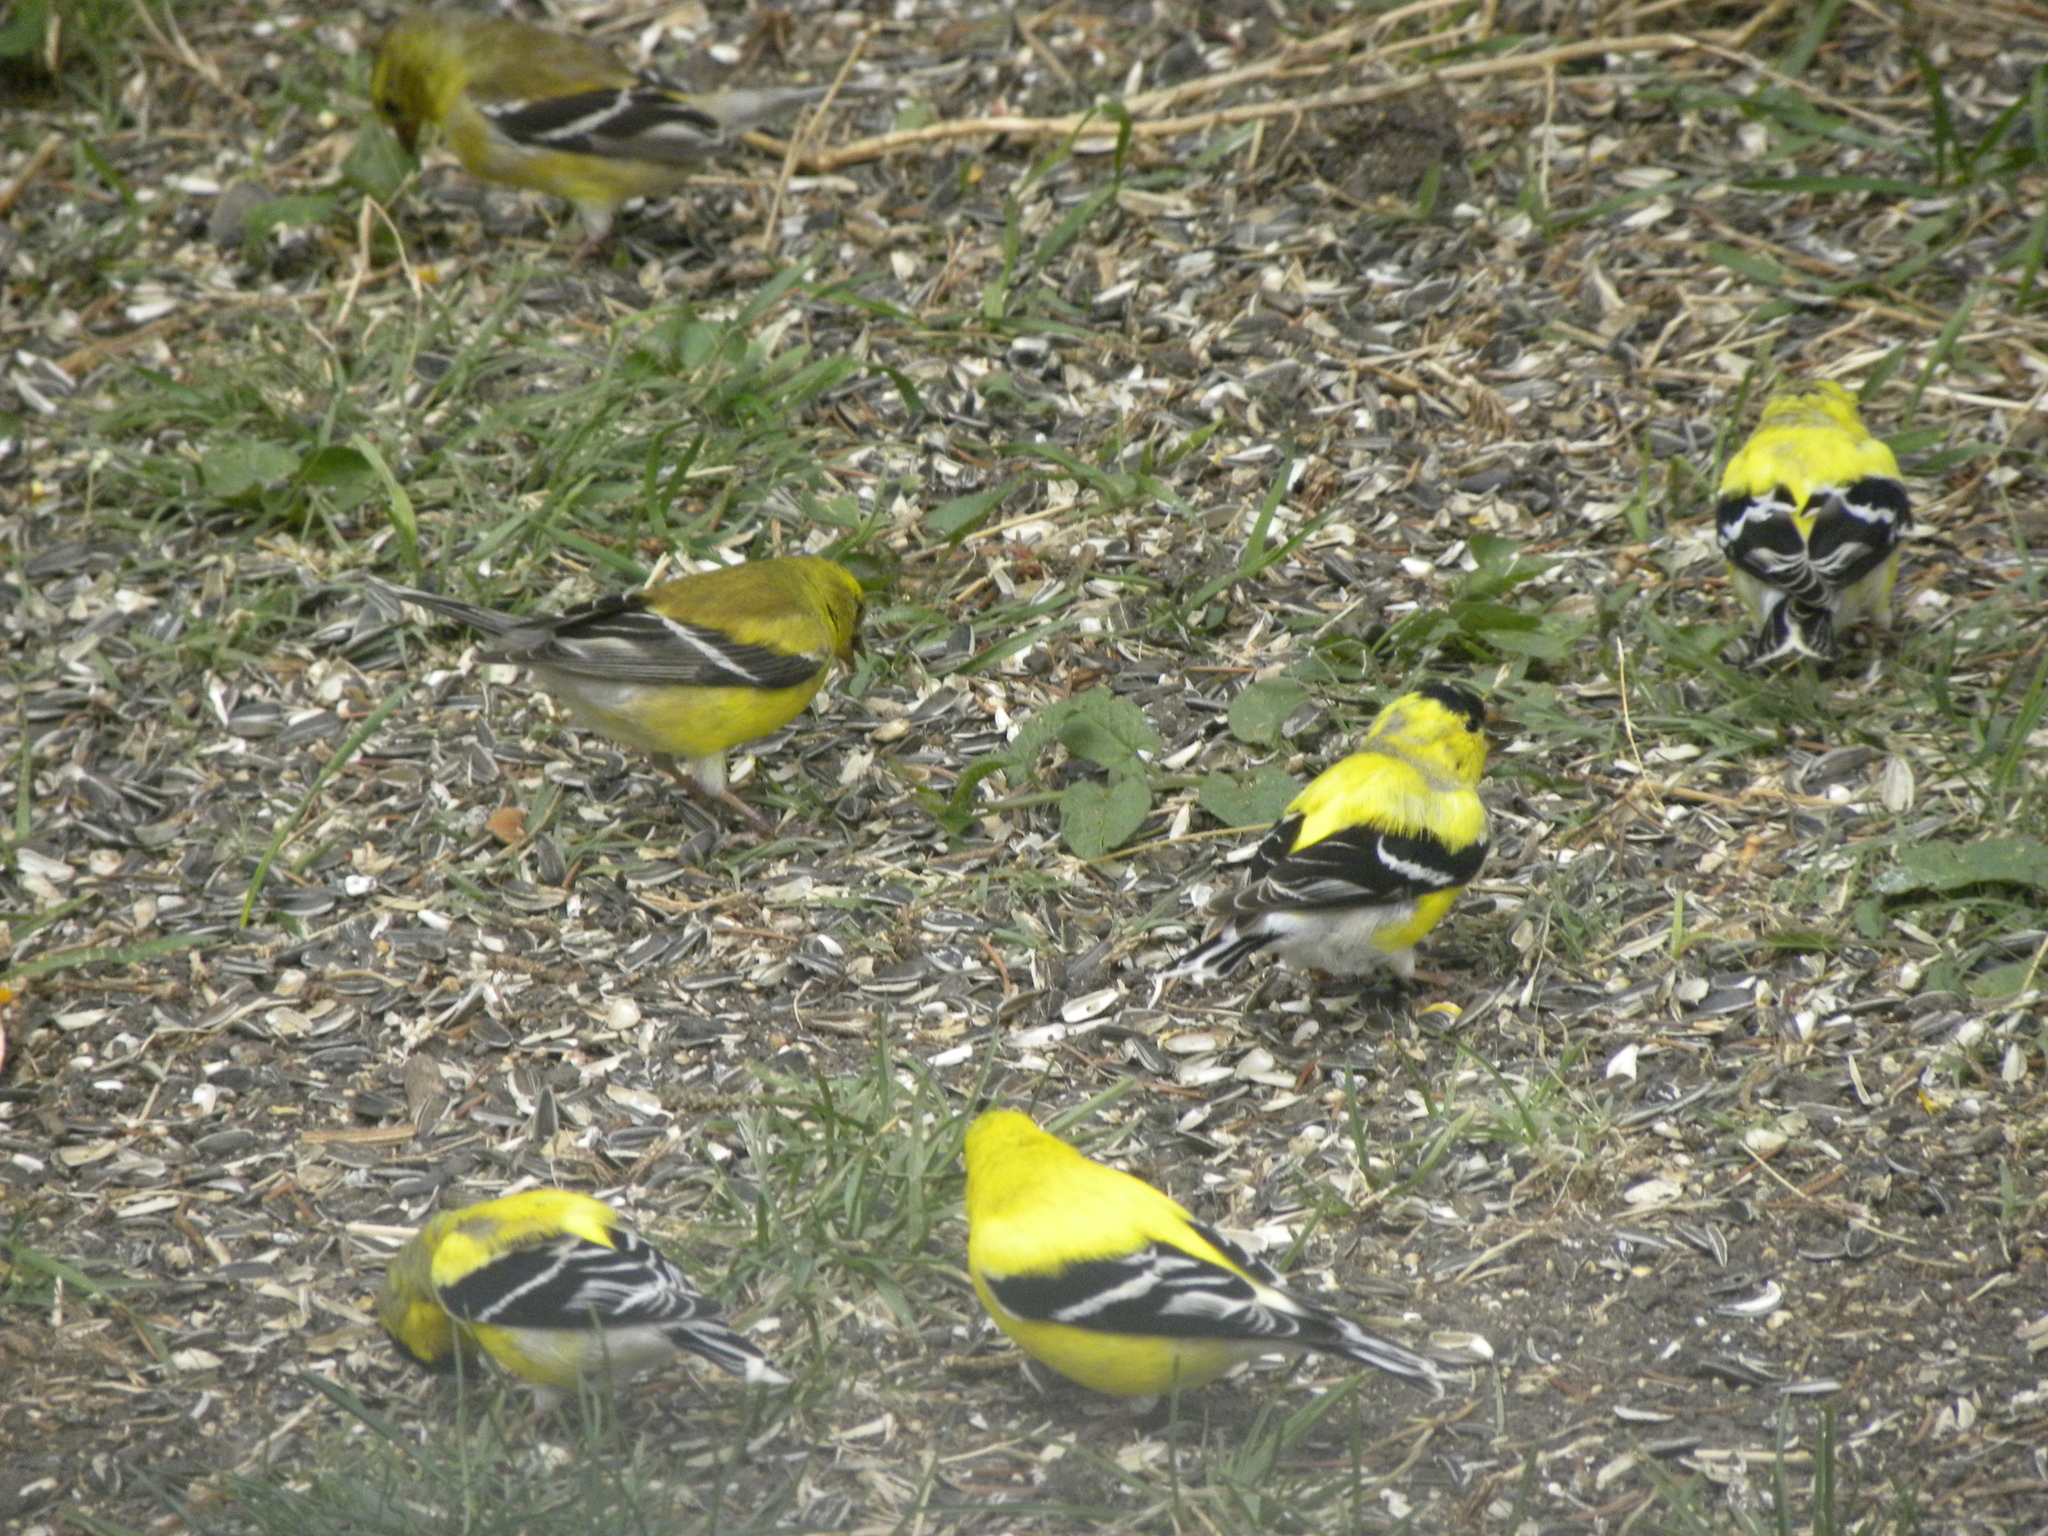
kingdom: Animalia
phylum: Chordata
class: Aves
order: Passeriformes
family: Fringillidae
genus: Spinus
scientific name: Spinus tristis
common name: American goldfinch
